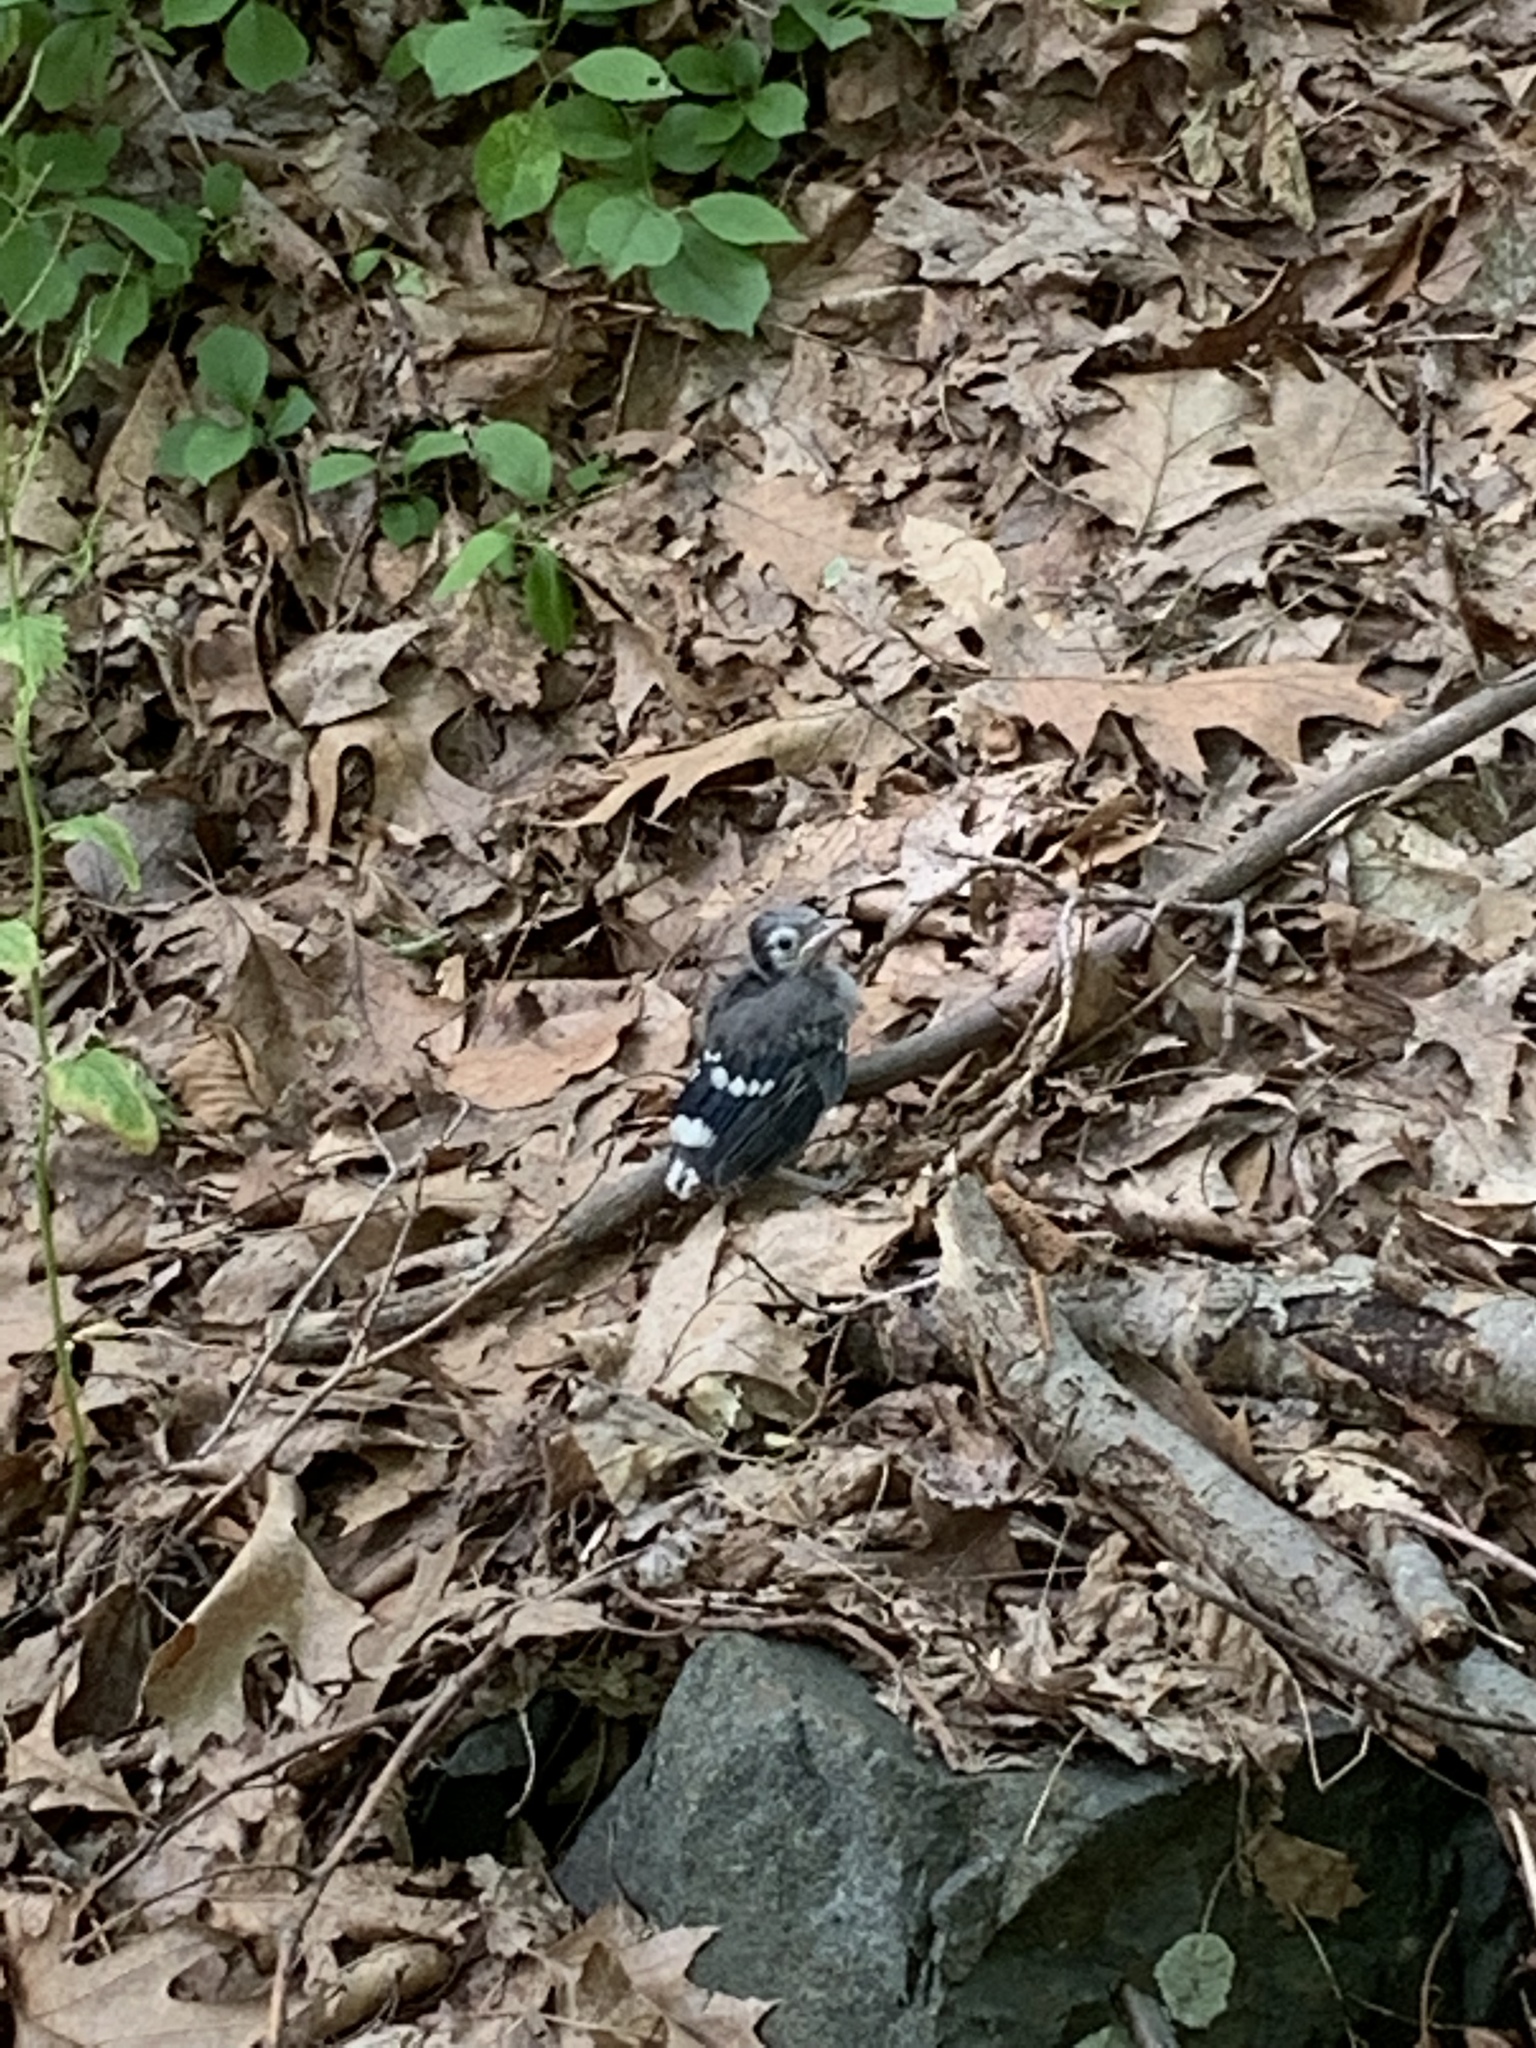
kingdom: Animalia
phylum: Chordata
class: Aves
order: Passeriformes
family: Corvidae
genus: Cyanocitta
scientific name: Cyanocitta cristata
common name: Blue jay
